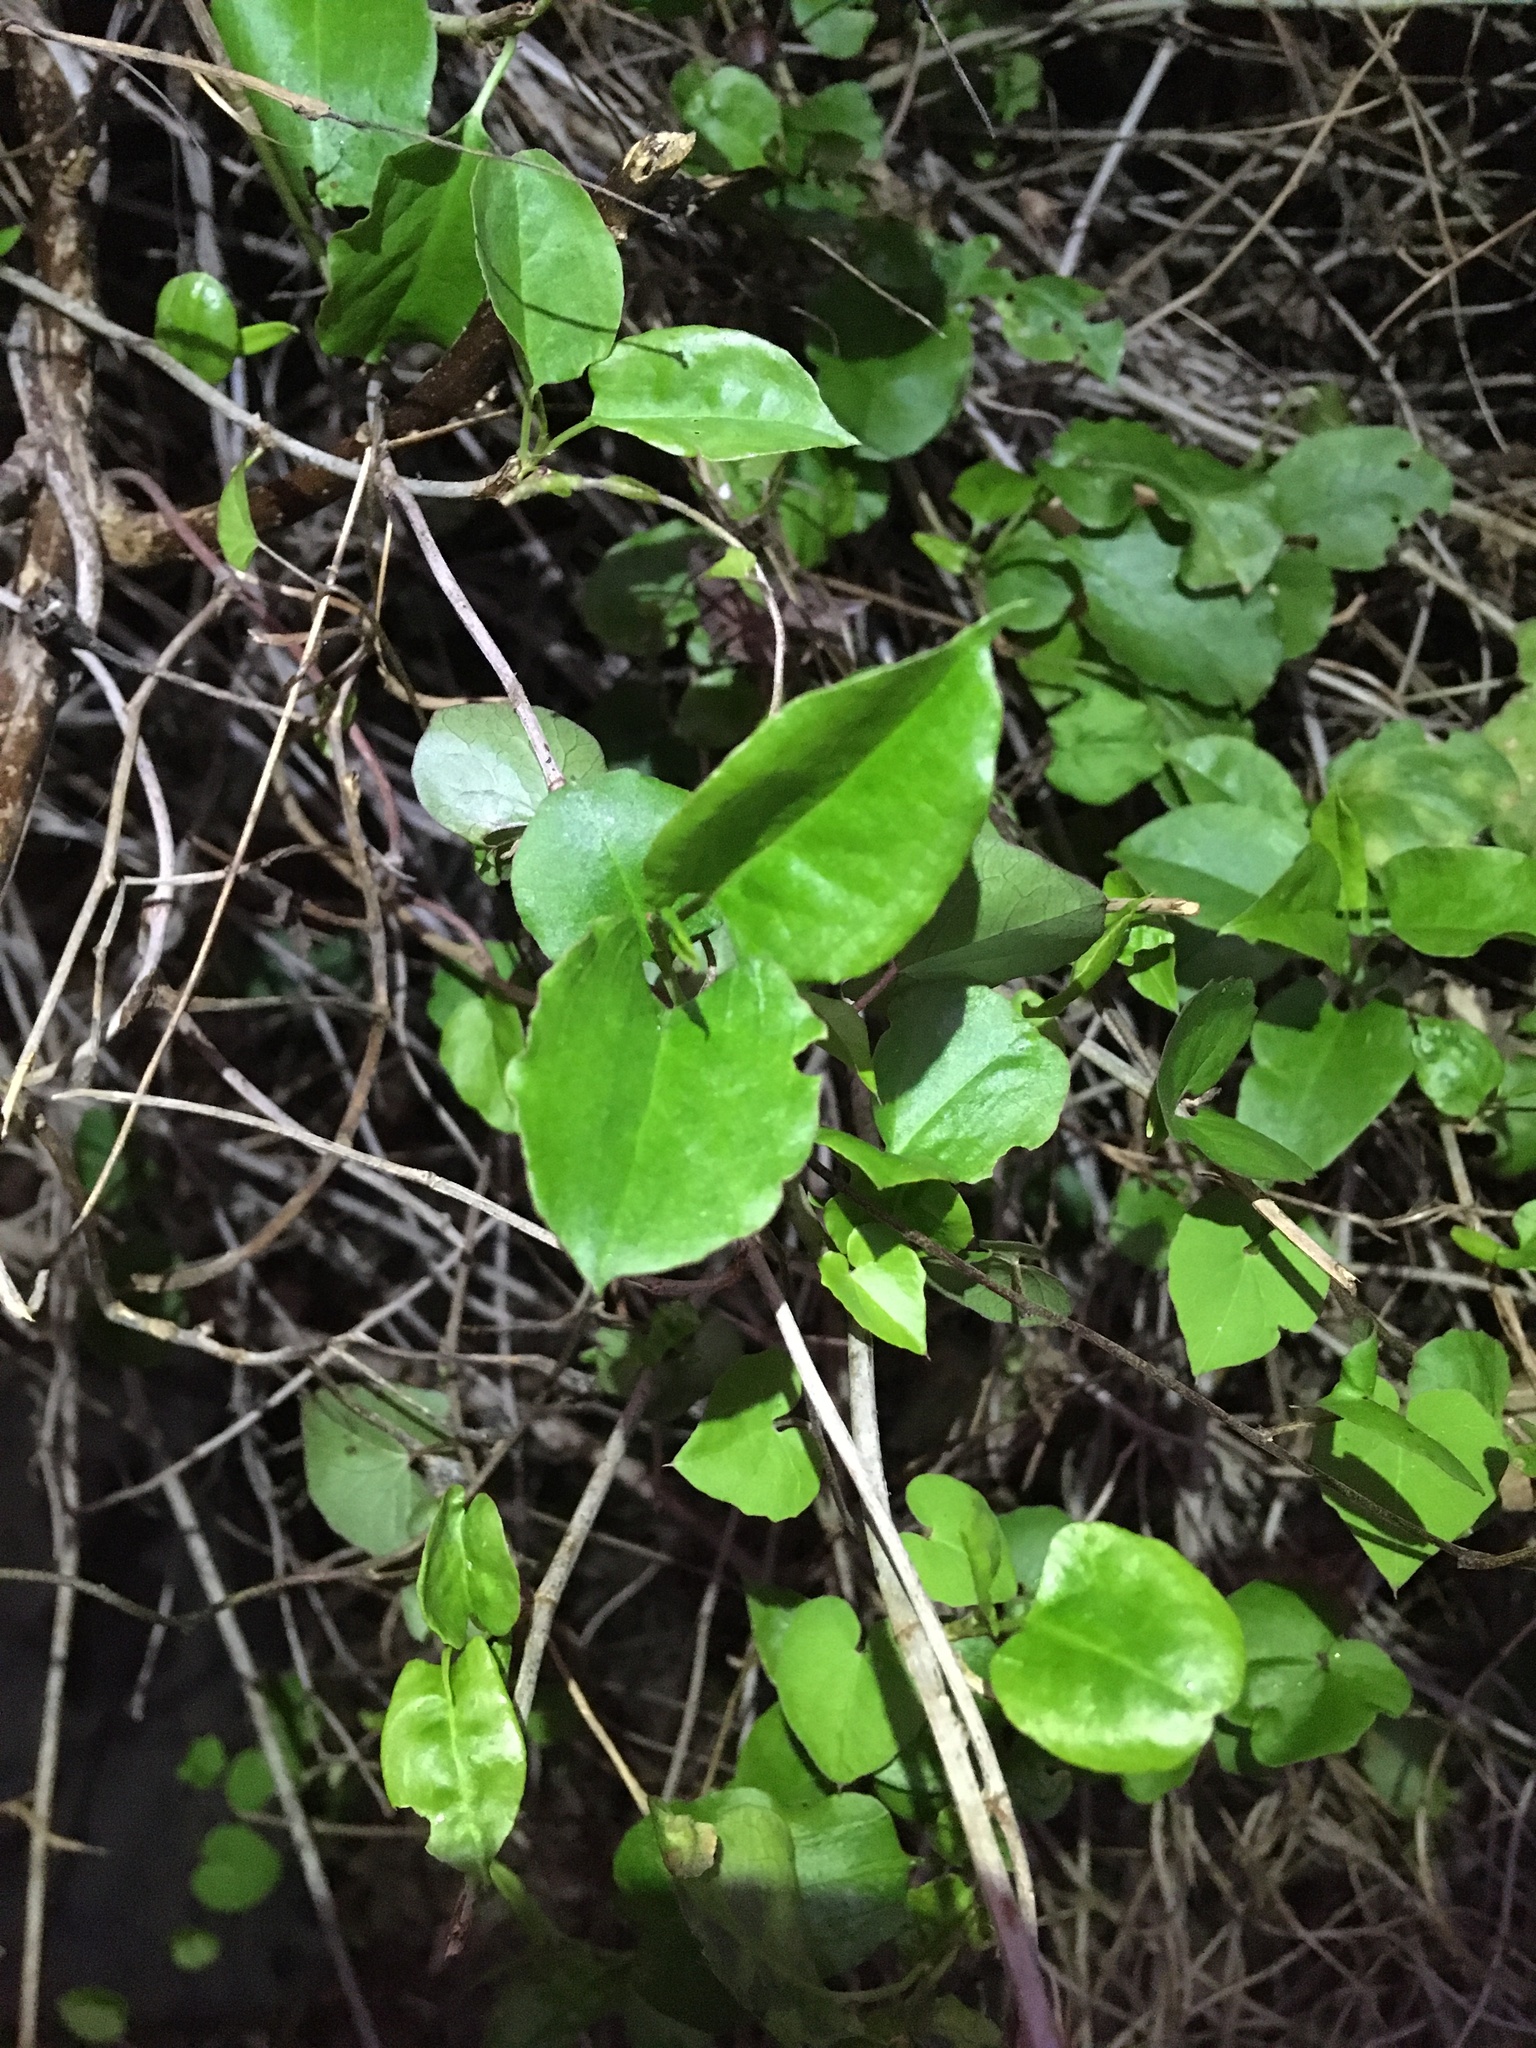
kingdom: Plantae
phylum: Tracheophyta
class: Magnoliopsida
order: Caryophyllales
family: Polygonaceae
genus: Muehlenbeckia
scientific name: Muehlenbeckia australis
